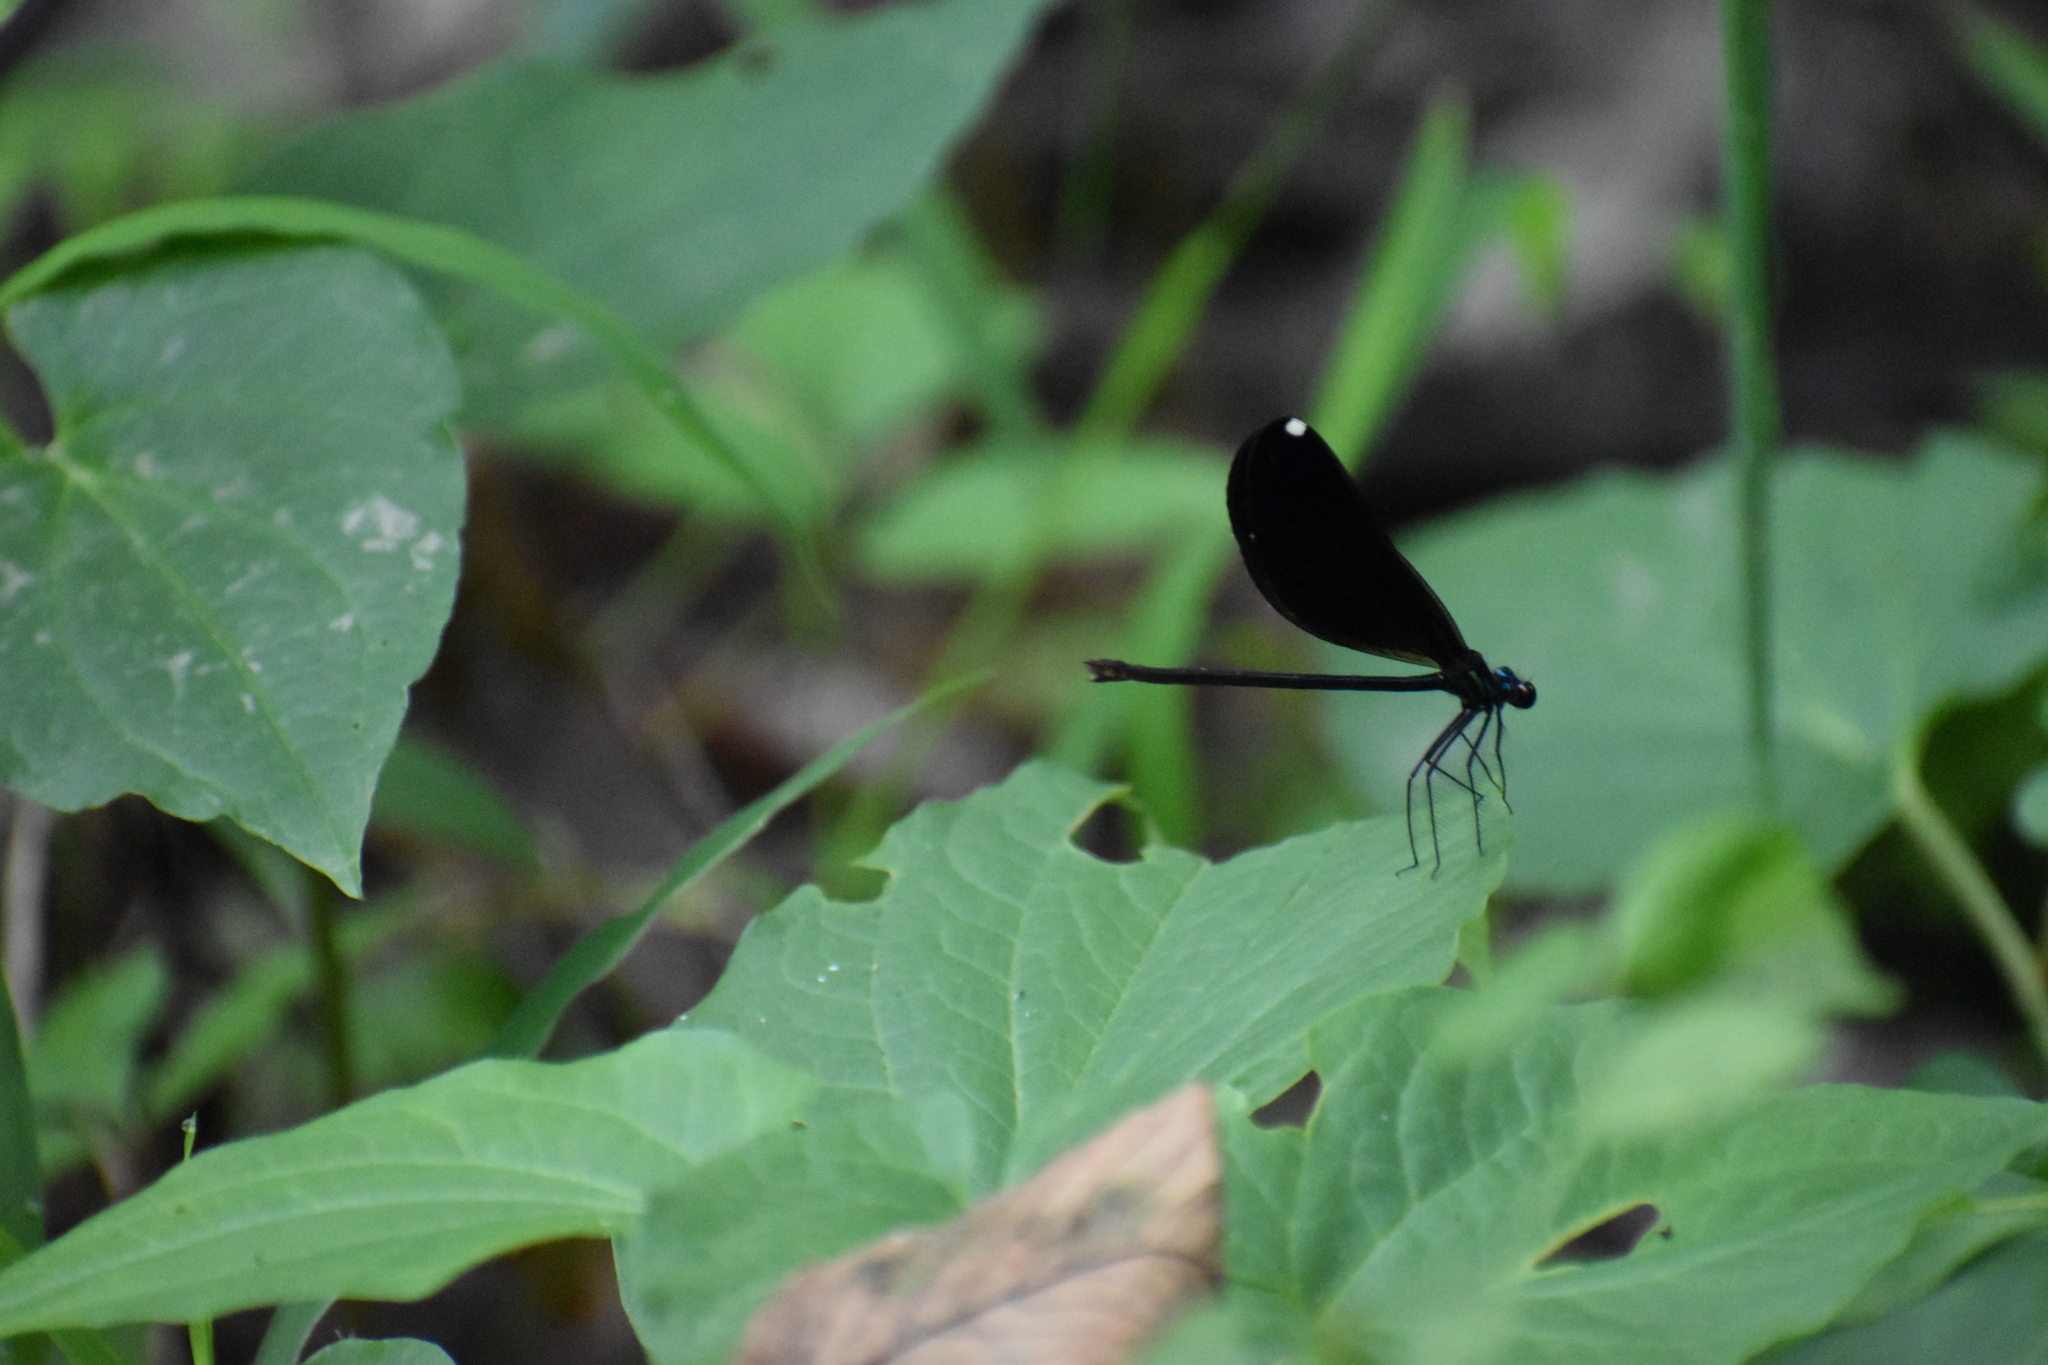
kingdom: Animalia
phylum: Arthropoda
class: Insecta
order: Odonata
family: Calopterygidae
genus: Calopteryx
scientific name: Calopteryx maculata
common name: Ebony jewelwing
